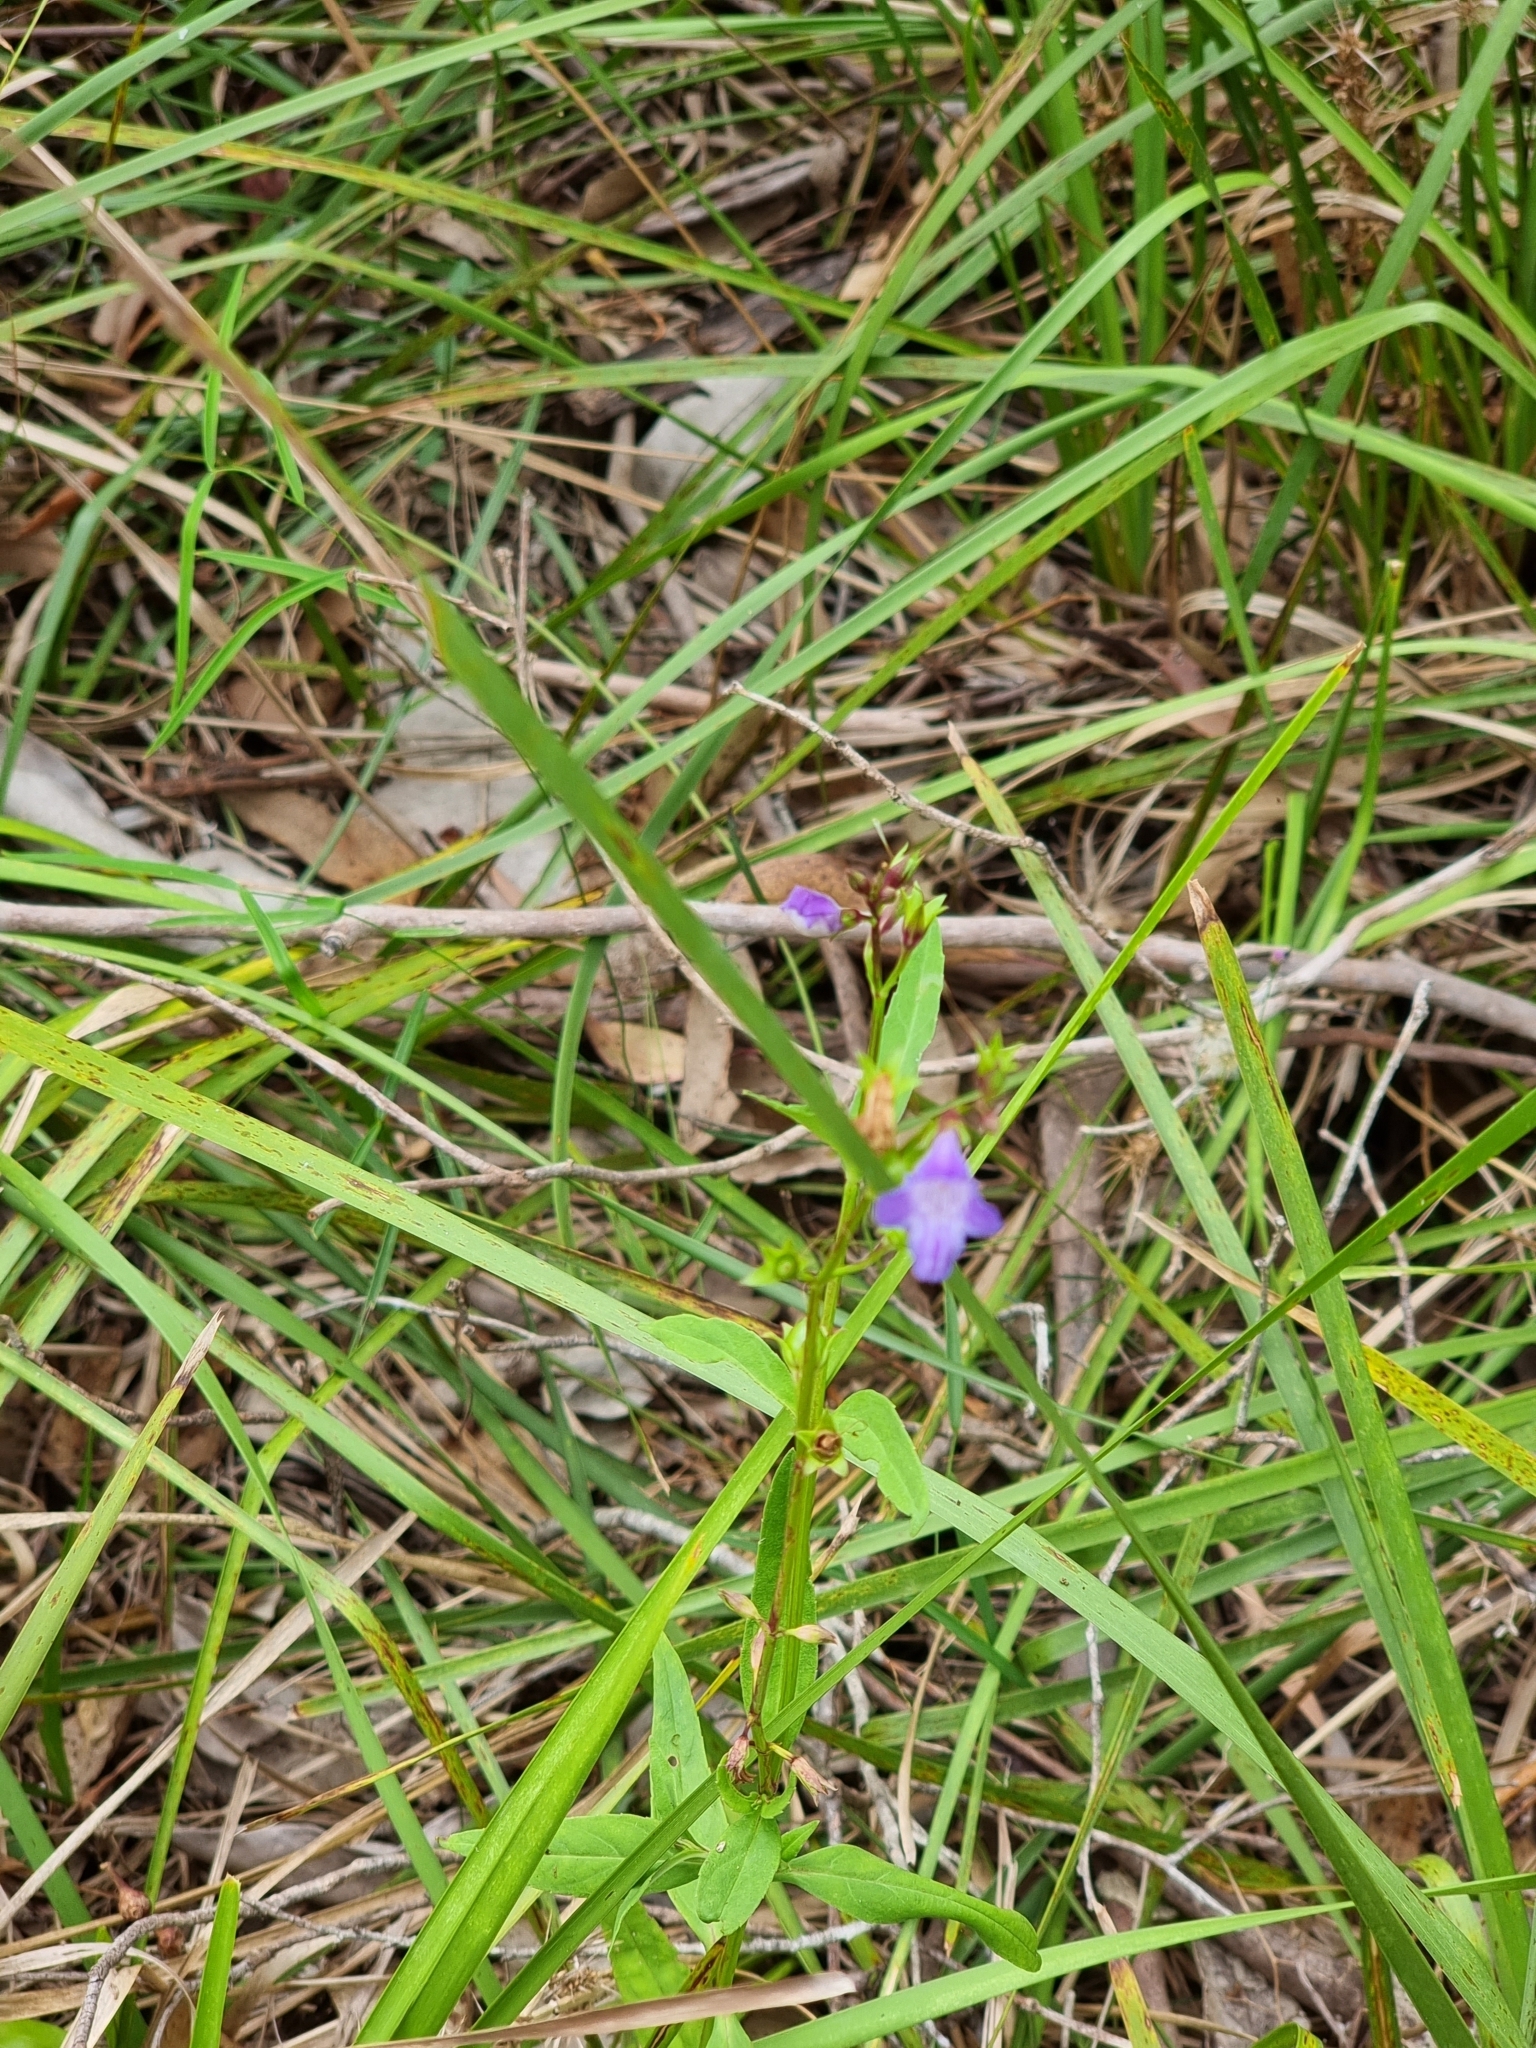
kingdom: Plantae
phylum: Tracheophyta
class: Magnoliopsida
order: Lamiales
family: Linderniaceae
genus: Artanema
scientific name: Artanema fimbriatum
